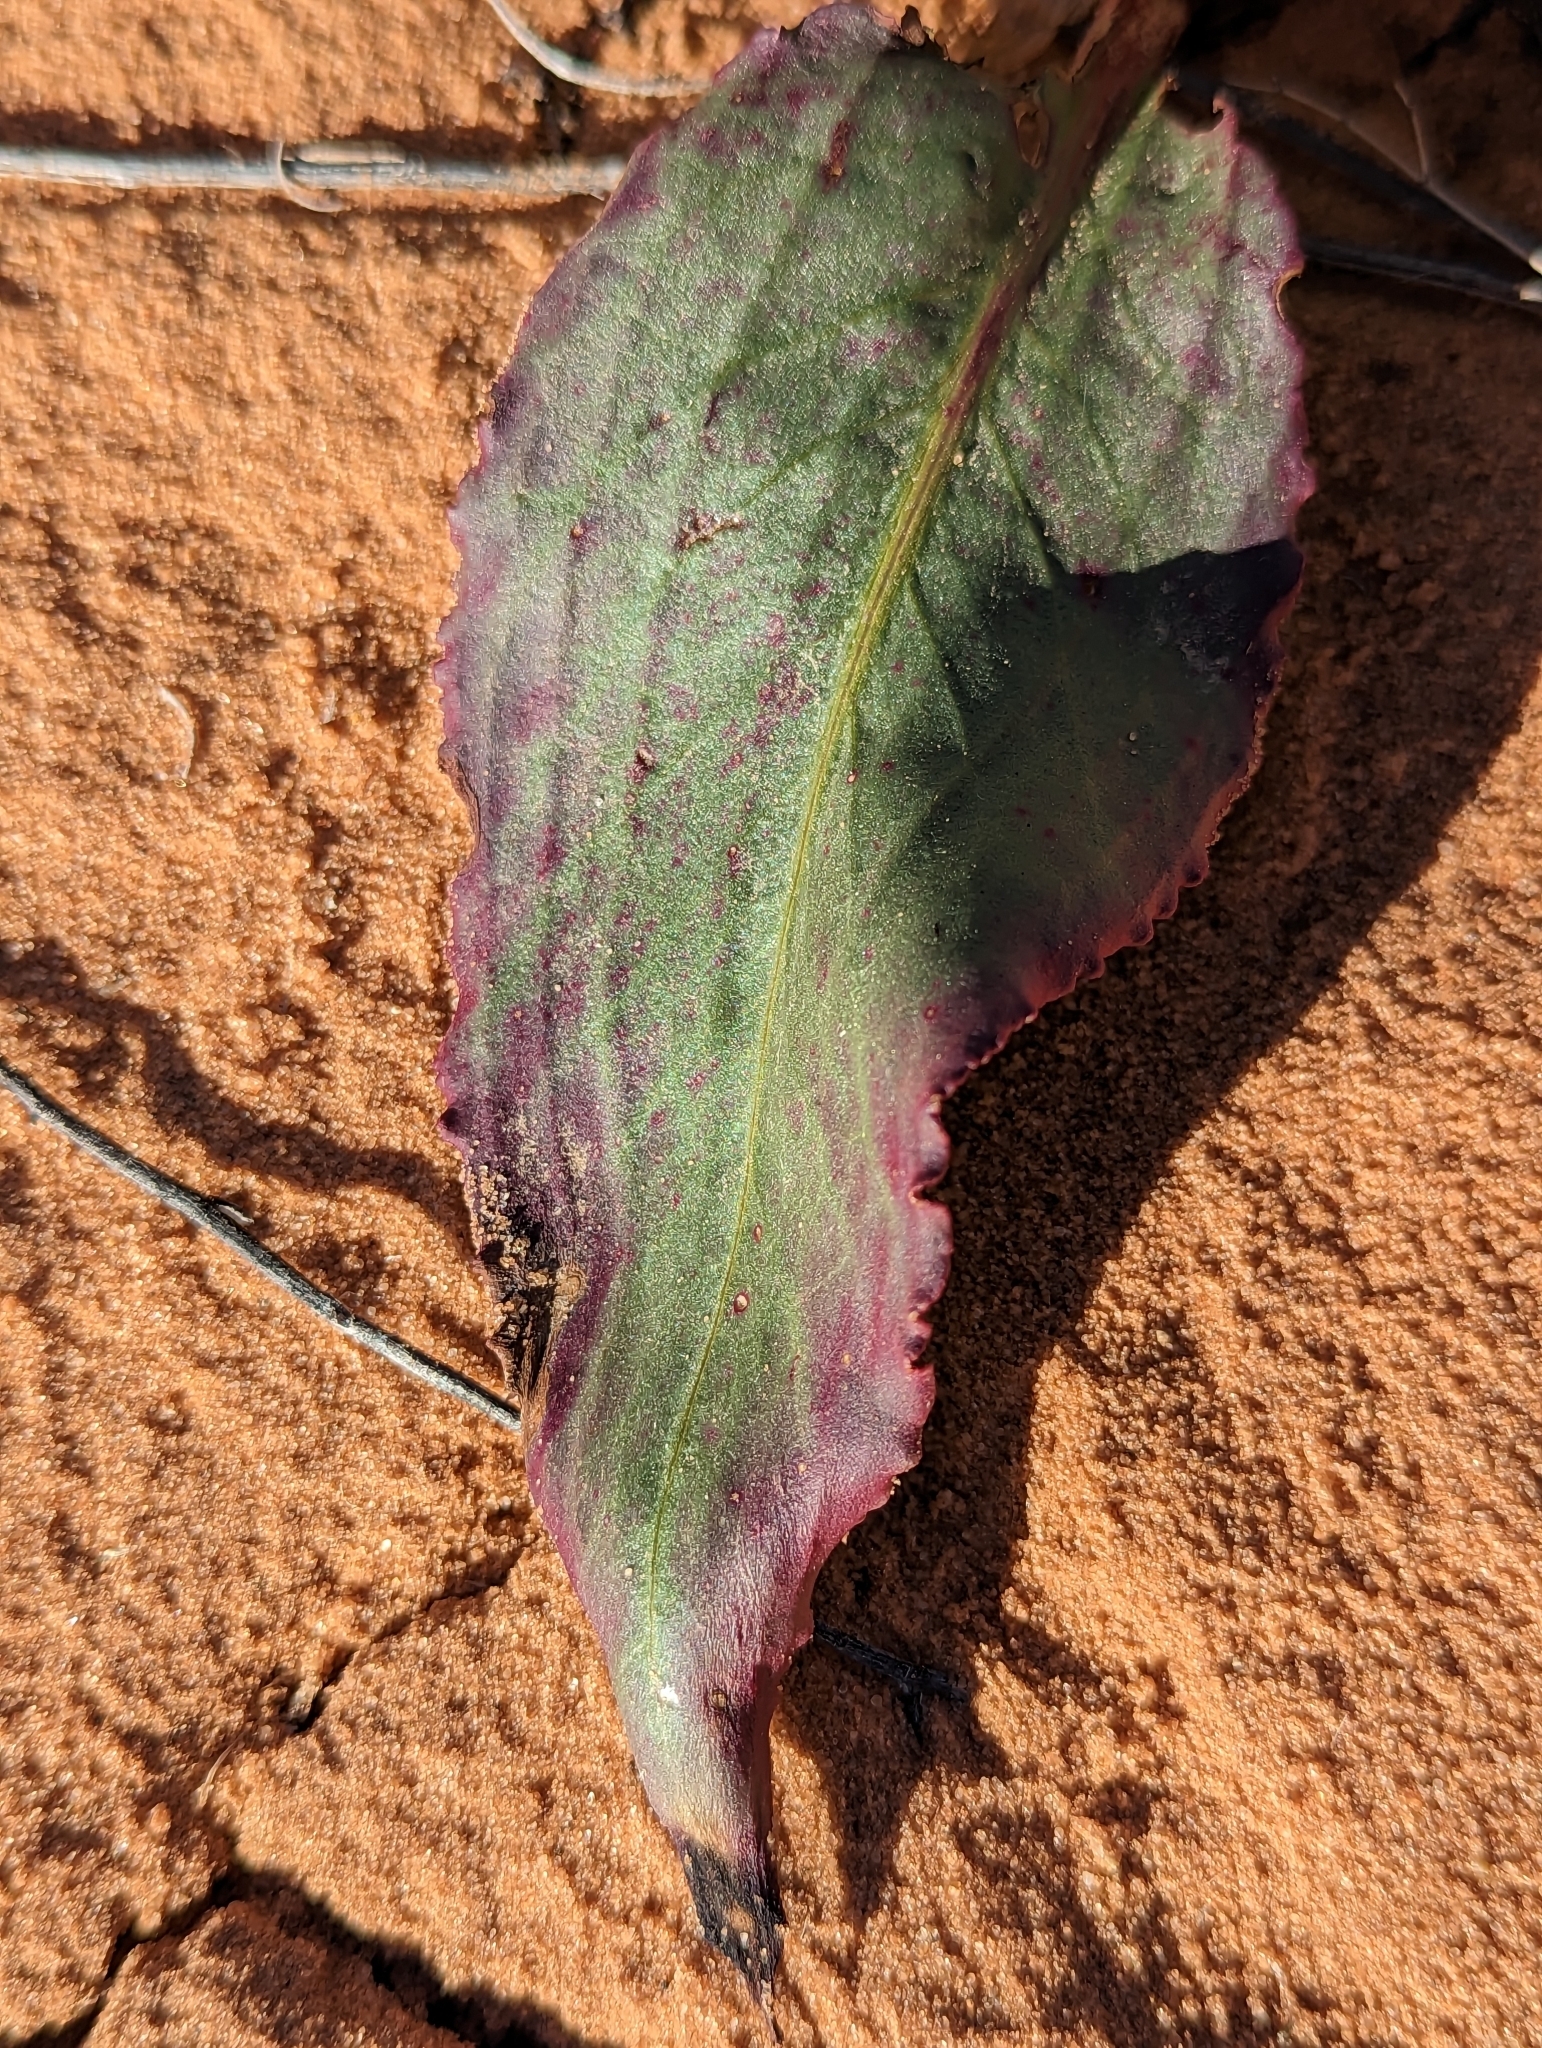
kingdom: Plantae
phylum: Tracheophyta
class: Magnoliopsida
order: Caryophyllales
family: Polygonaceae
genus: Rumex
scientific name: Rumex hymenosepalus
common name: Ganagra
